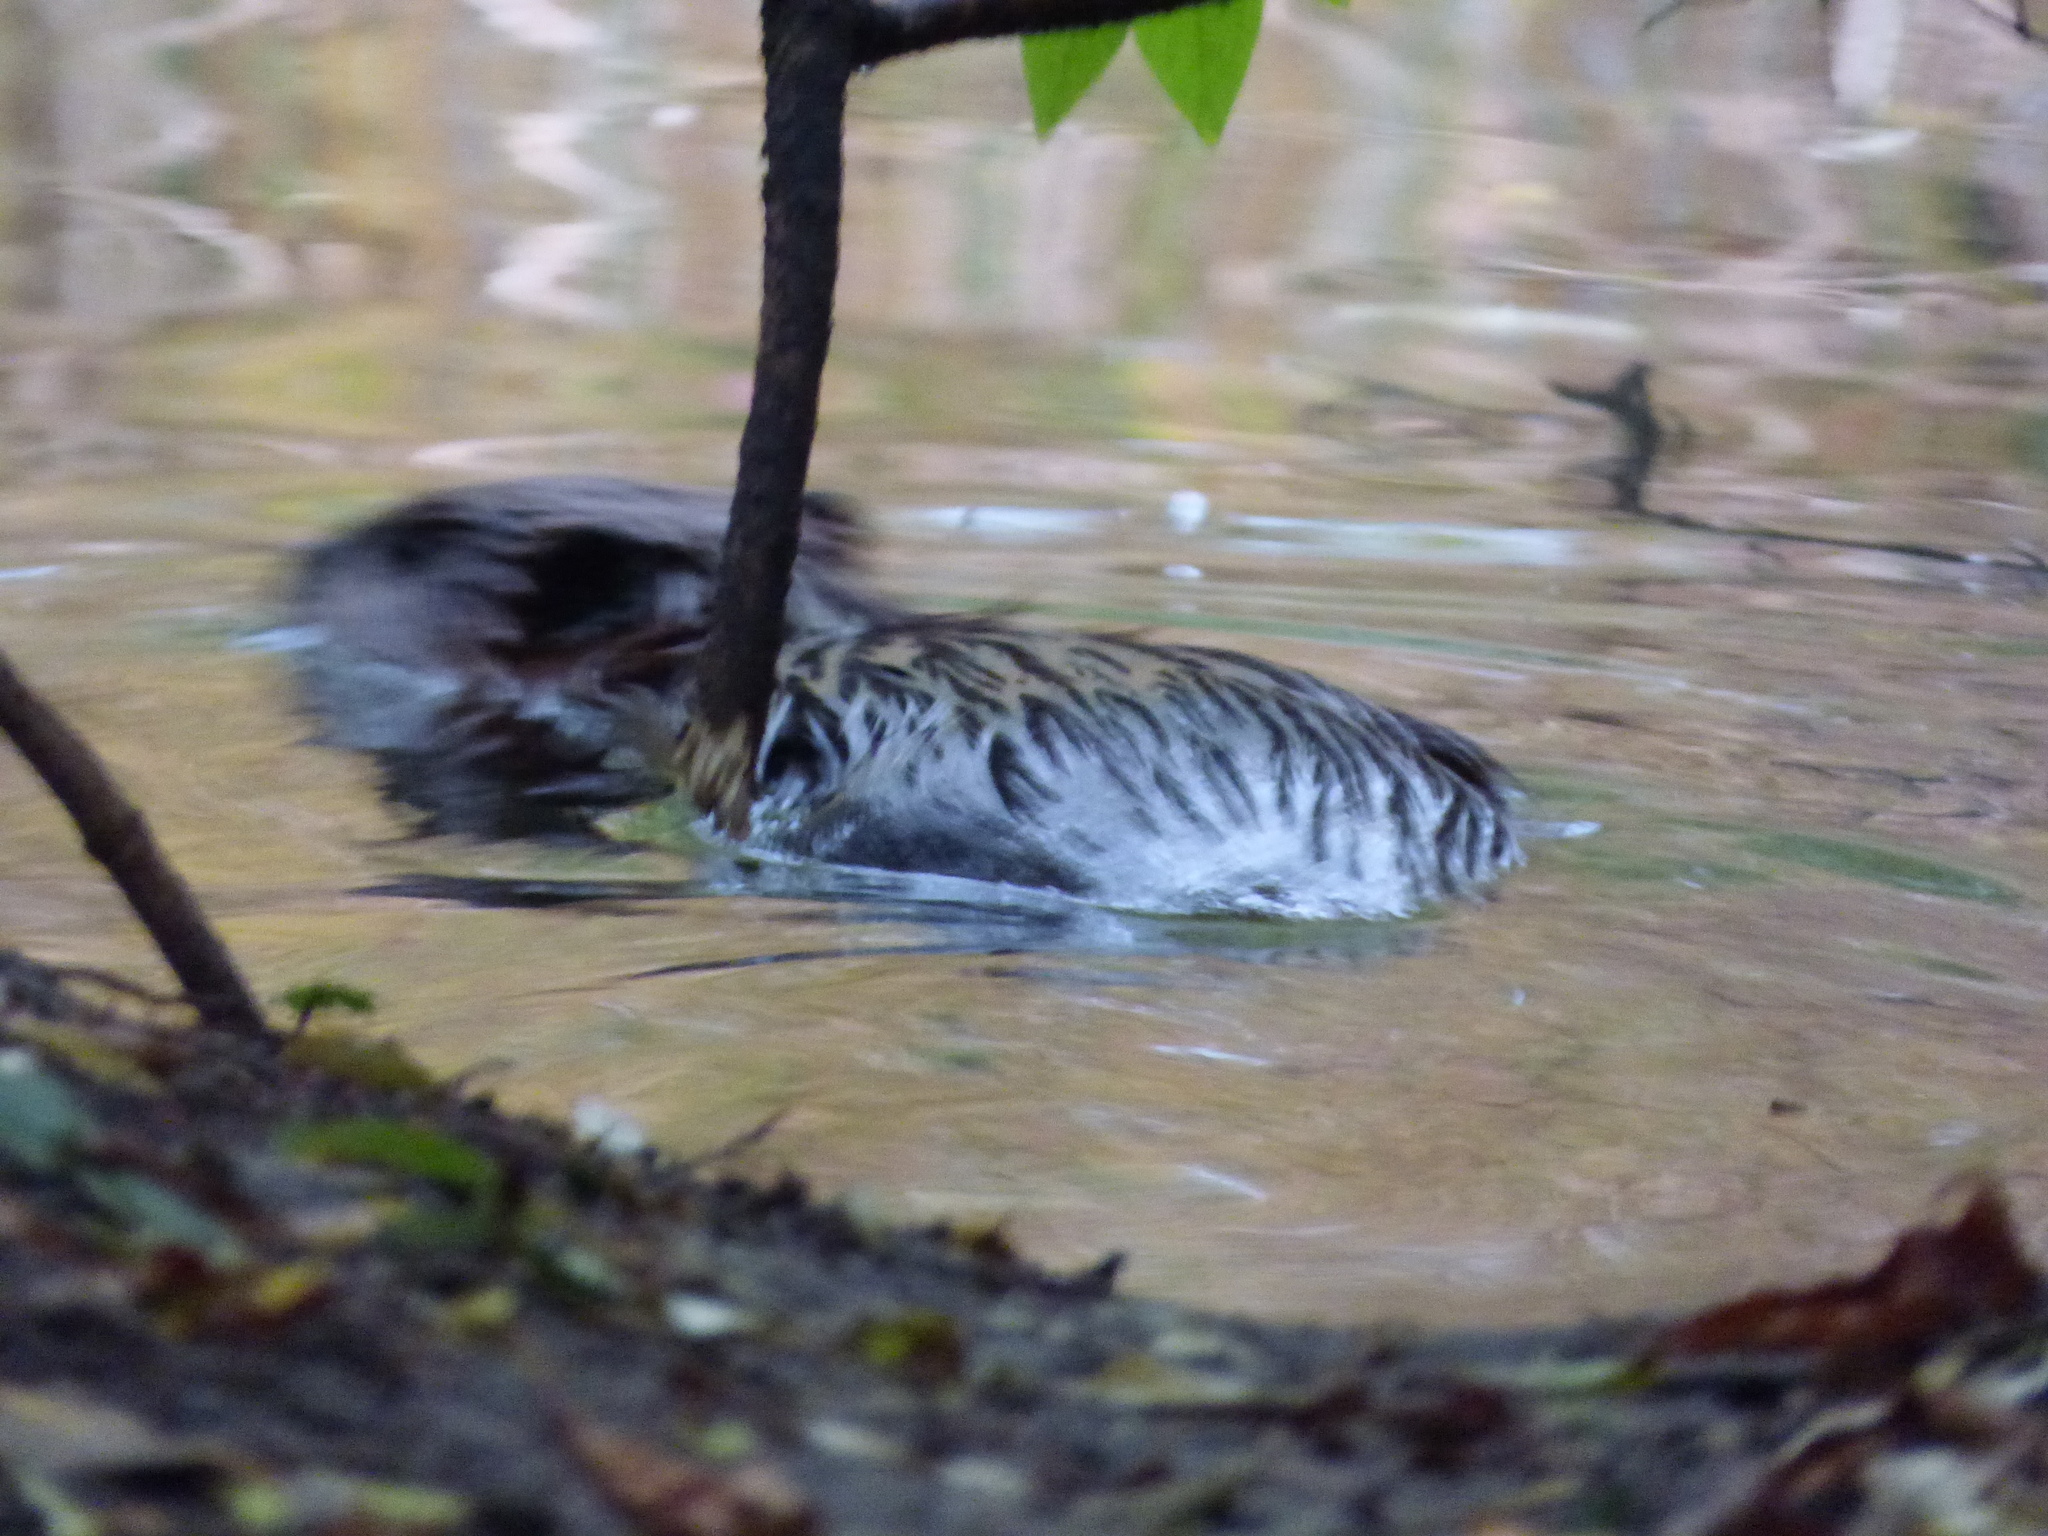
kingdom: Animalia
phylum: Chordata
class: Mammalia
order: Rodentia
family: Cricetidae
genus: Ondatra
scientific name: Ondatra zibethicus
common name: Muskrat
